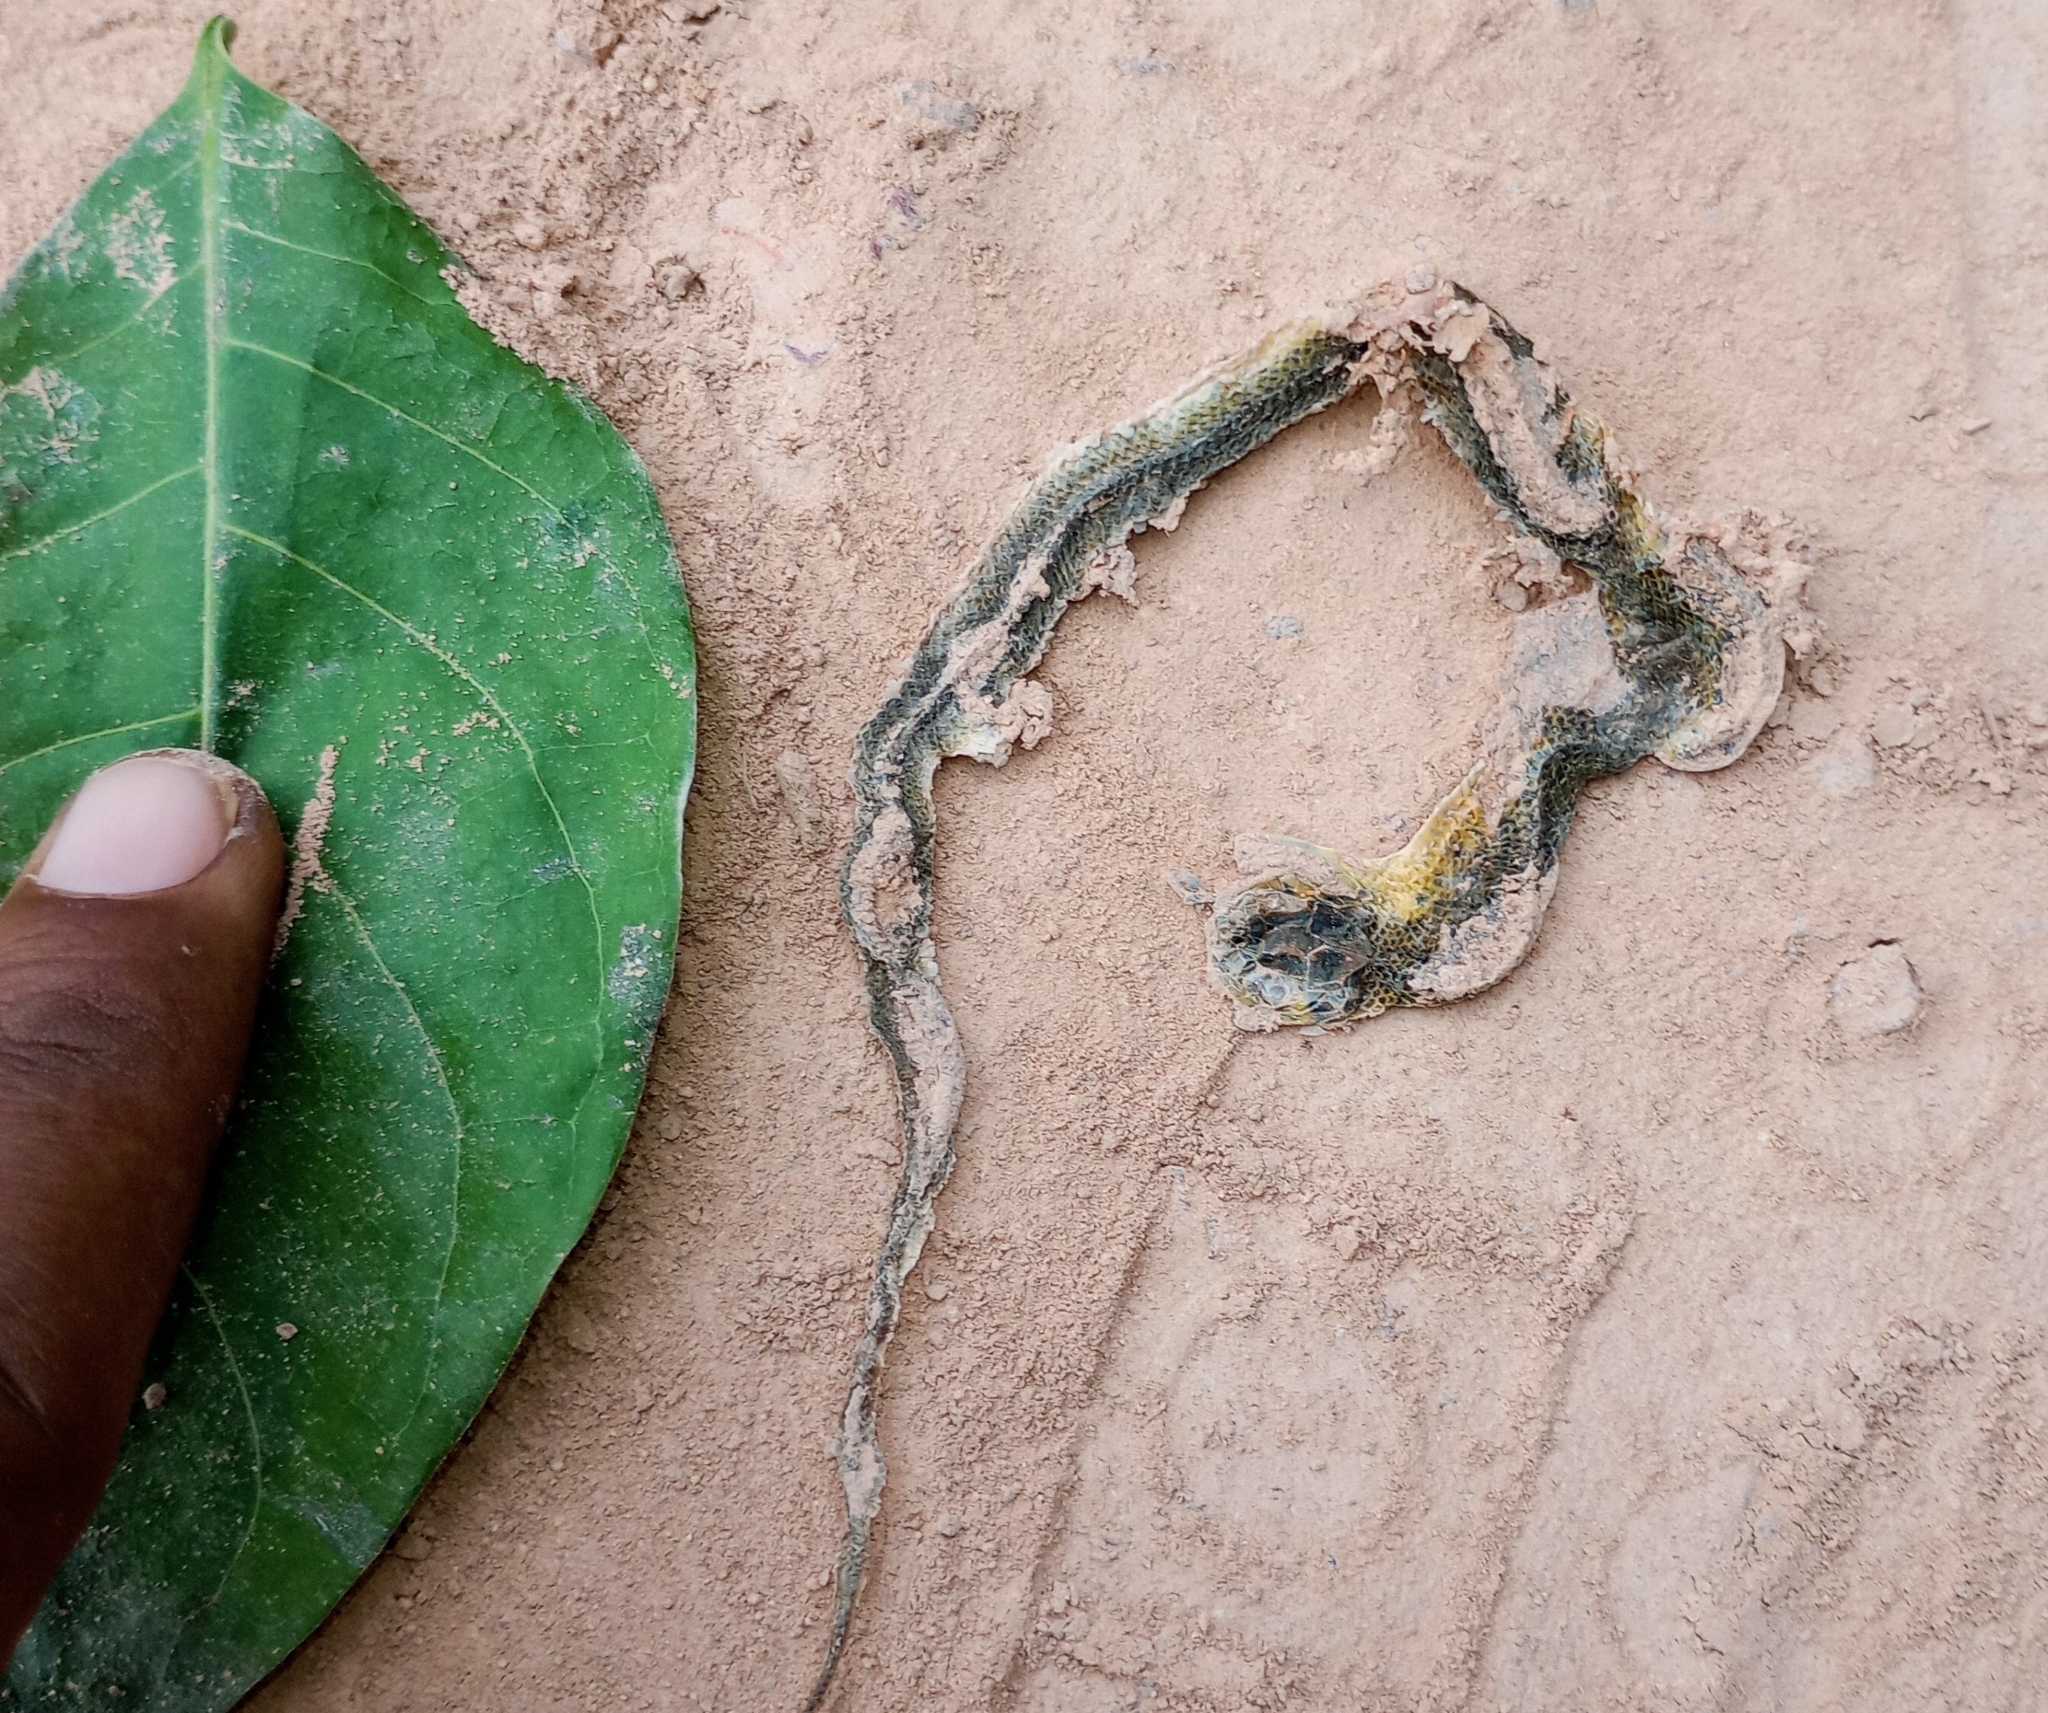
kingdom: Animalia
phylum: Chordata
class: Squamata
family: Colubridae
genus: Fowlea
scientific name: Fowlea piscator
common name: Asiatic water snake
